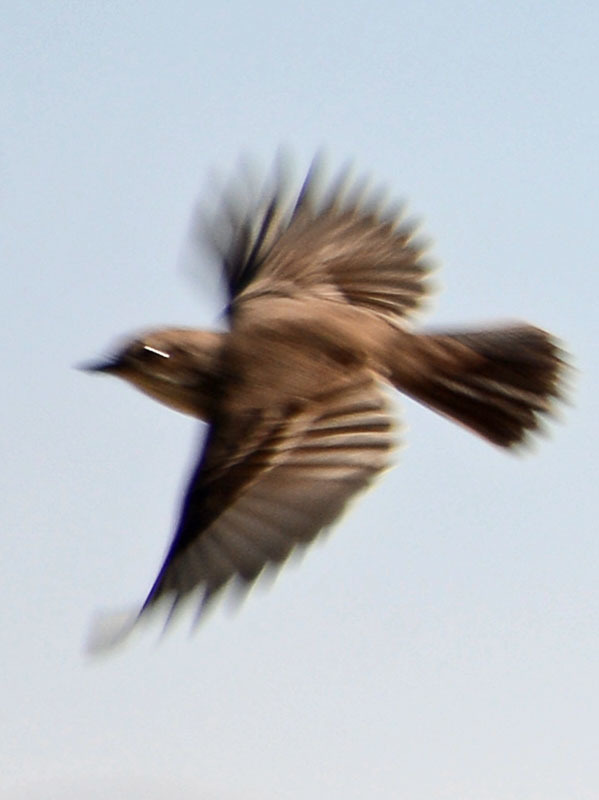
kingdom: Animalia
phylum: Chordata
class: Aves
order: Passeriformes
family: Parulidae
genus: Setophaga
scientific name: Setophaga coronata
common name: Myrtle warbler
